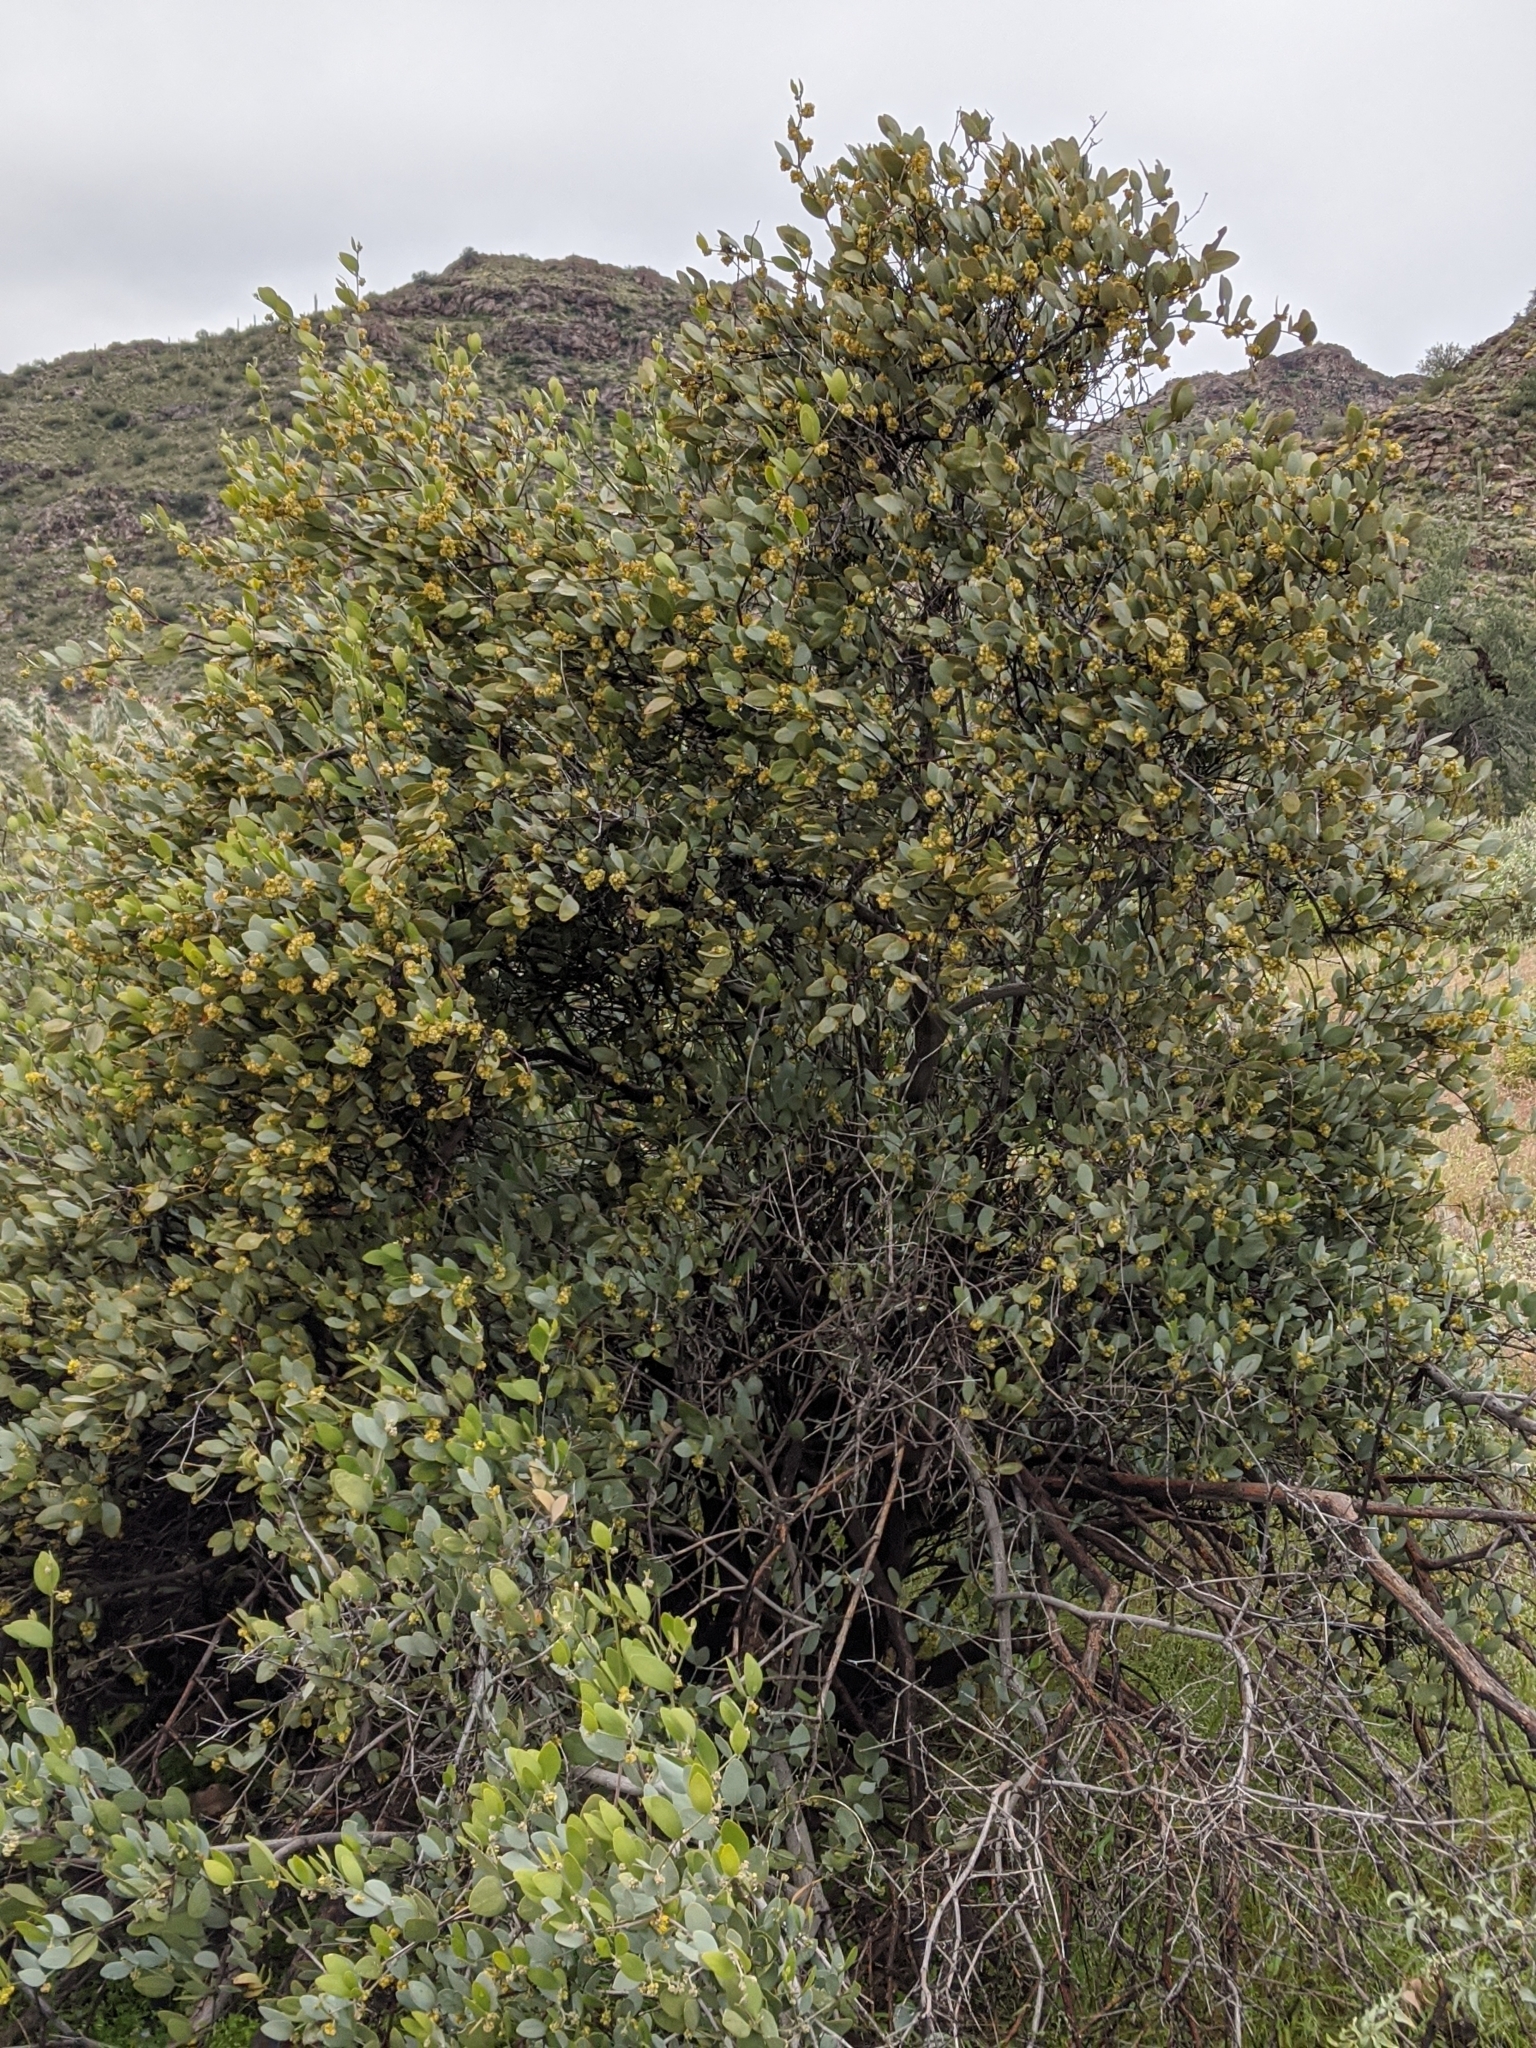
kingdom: Plantae
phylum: Tracheophyta
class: Magnoliopsida
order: Caryophyllales
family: Simmondsiaceae
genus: Simmondsia
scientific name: Simmondsia chinensis
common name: Jojoba
